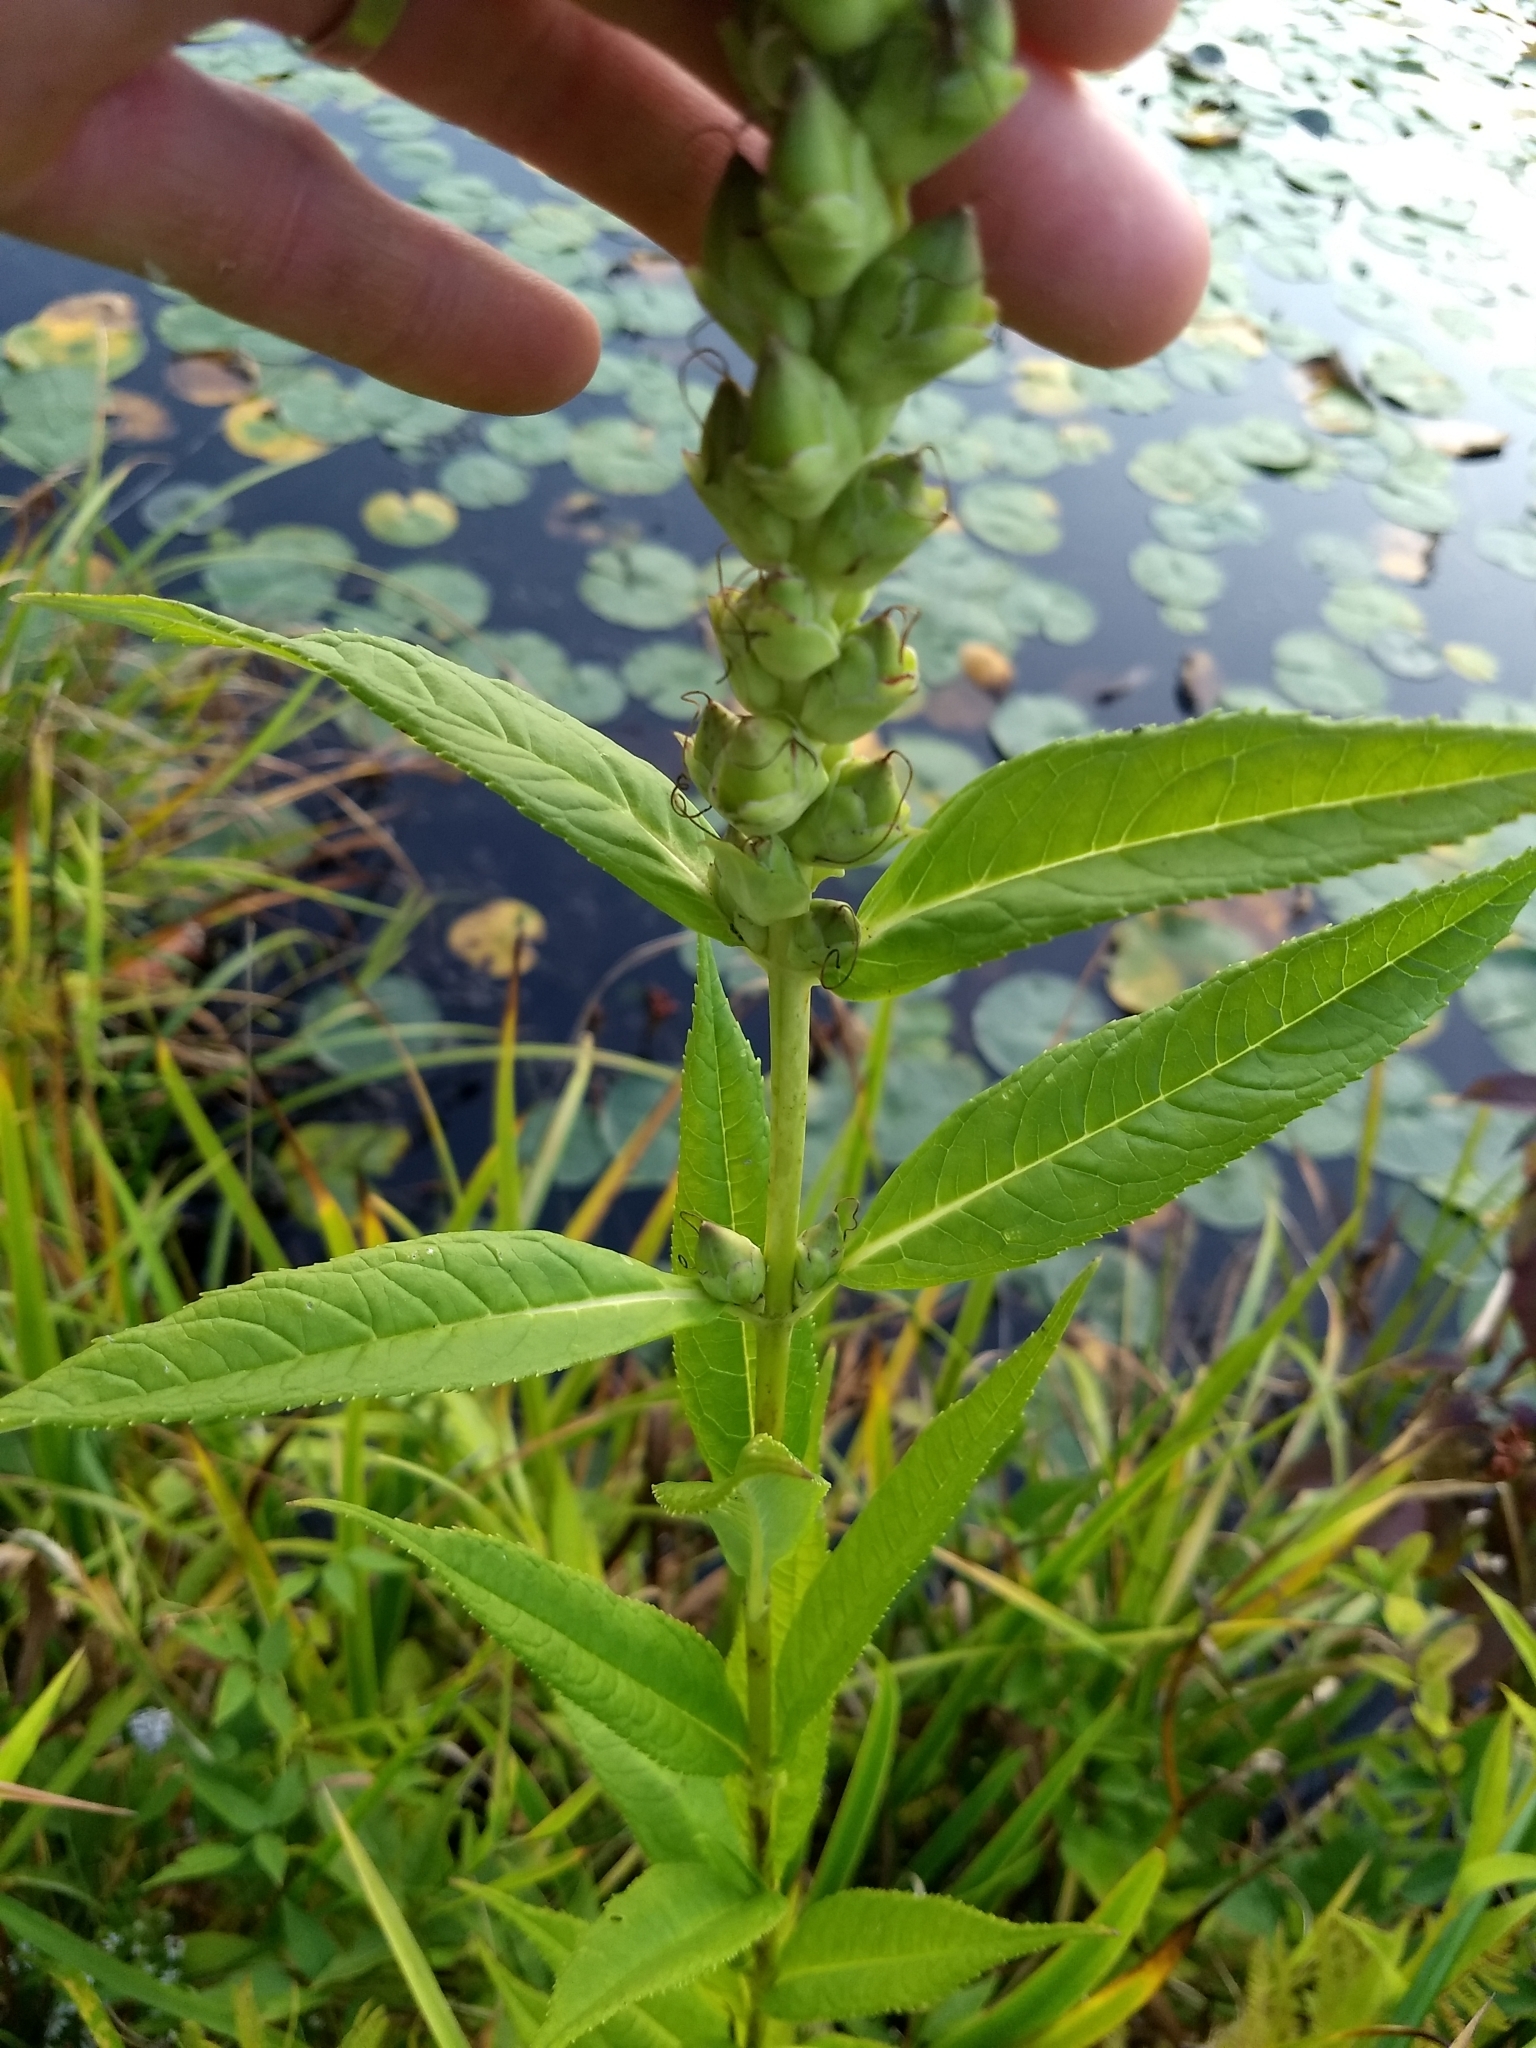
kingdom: Plantae
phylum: Tracheophyta
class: Magnoliopsida
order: Lamiales
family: Plantaginaceae
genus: Chelone
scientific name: Chelone glabra
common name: Snakehead
